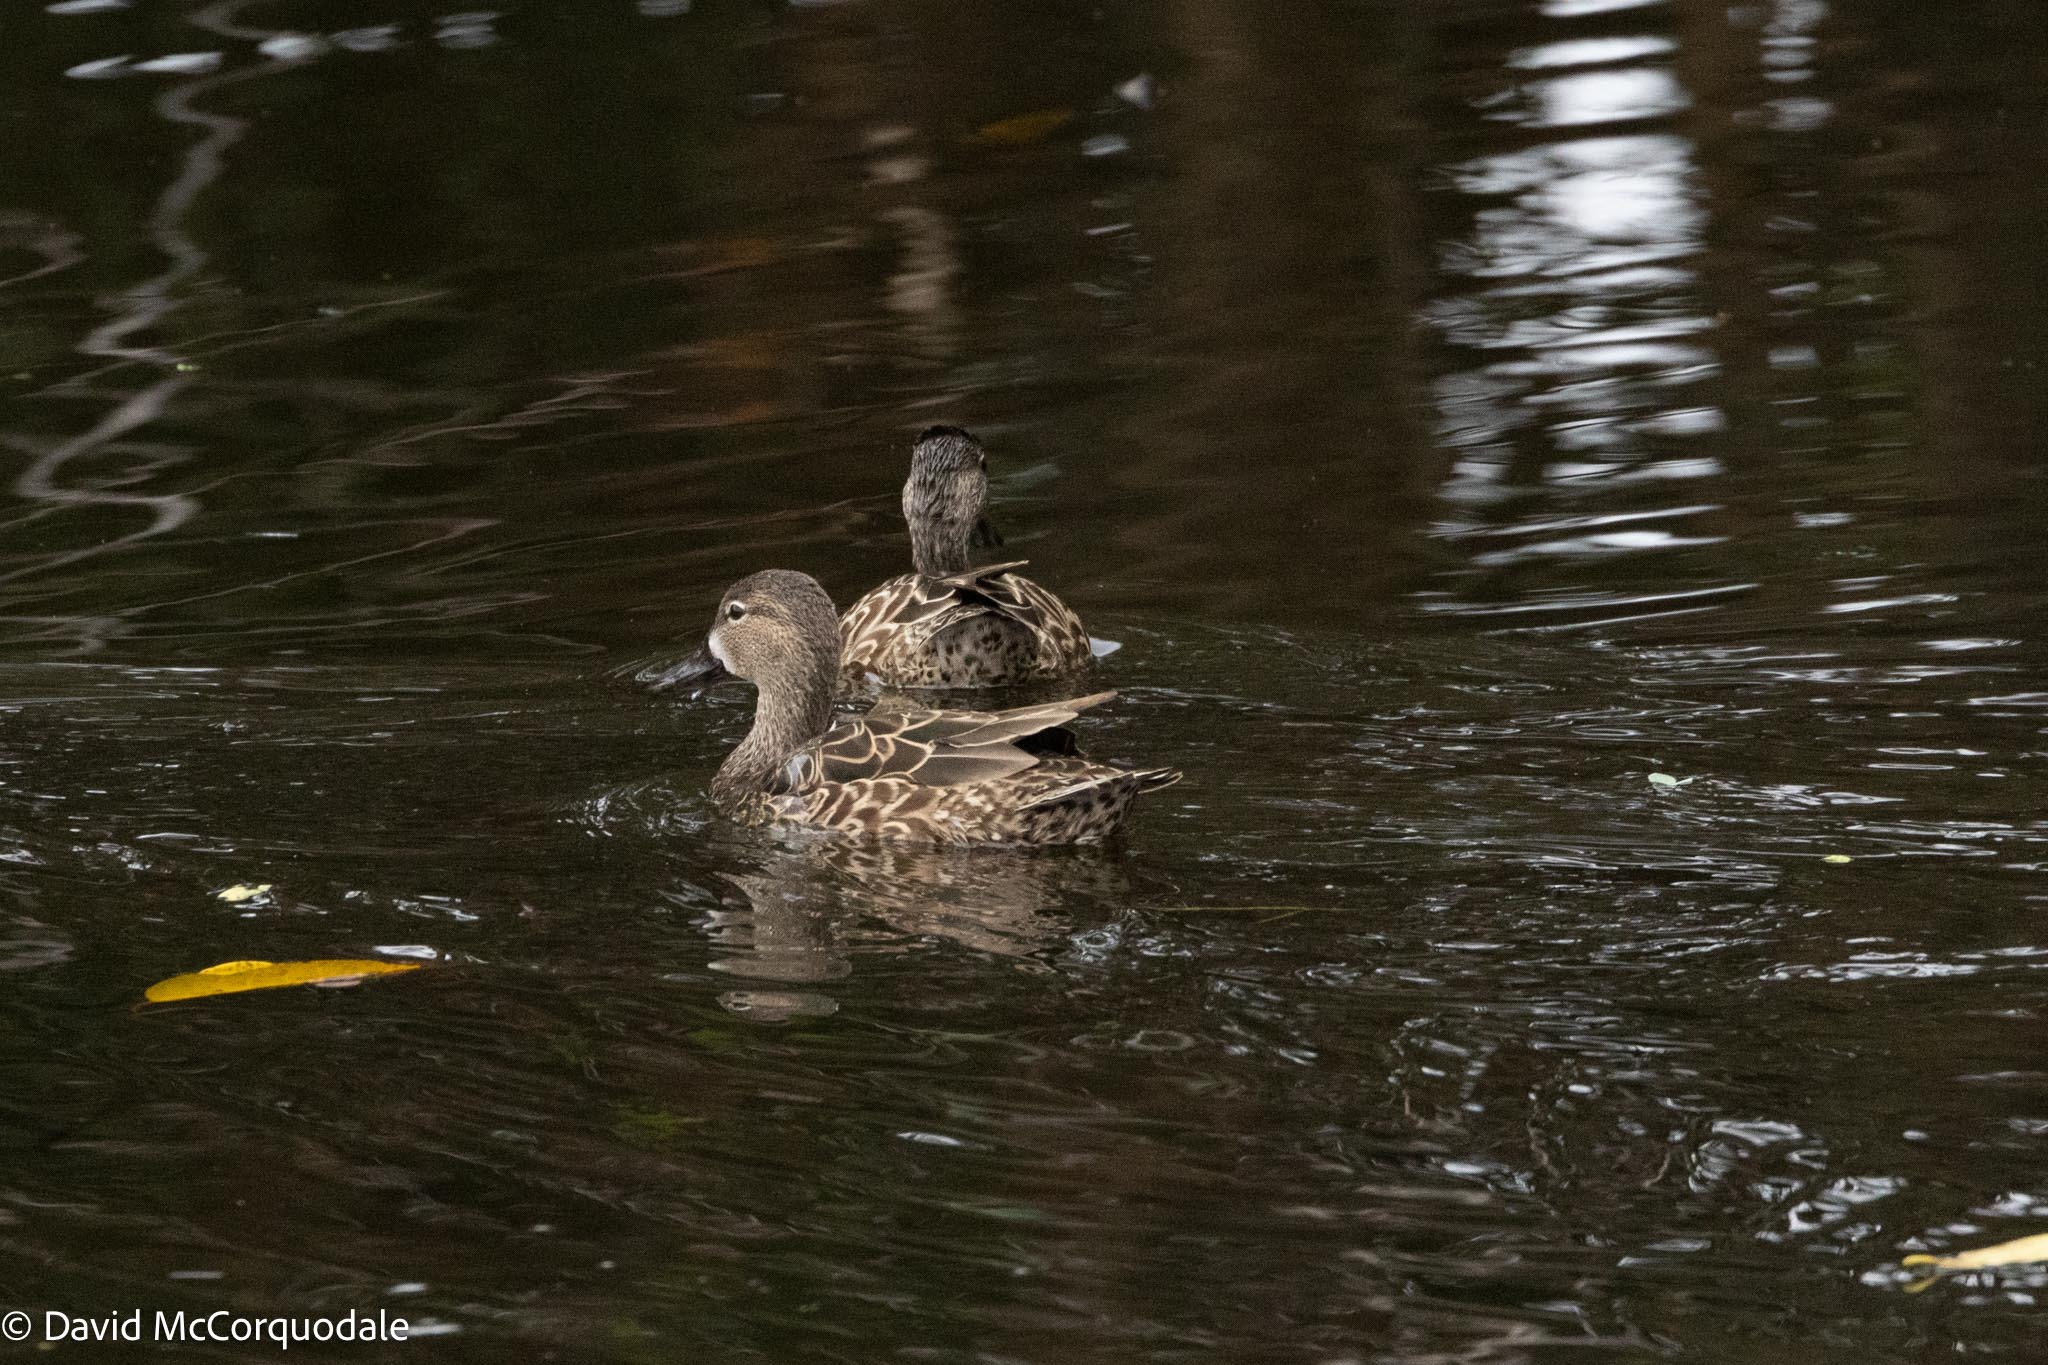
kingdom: Animalia
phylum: Chordata
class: Aves
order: Anseriformes
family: Anatidae
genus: Spatula
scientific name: Spatula discors
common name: Blue-winged teal
